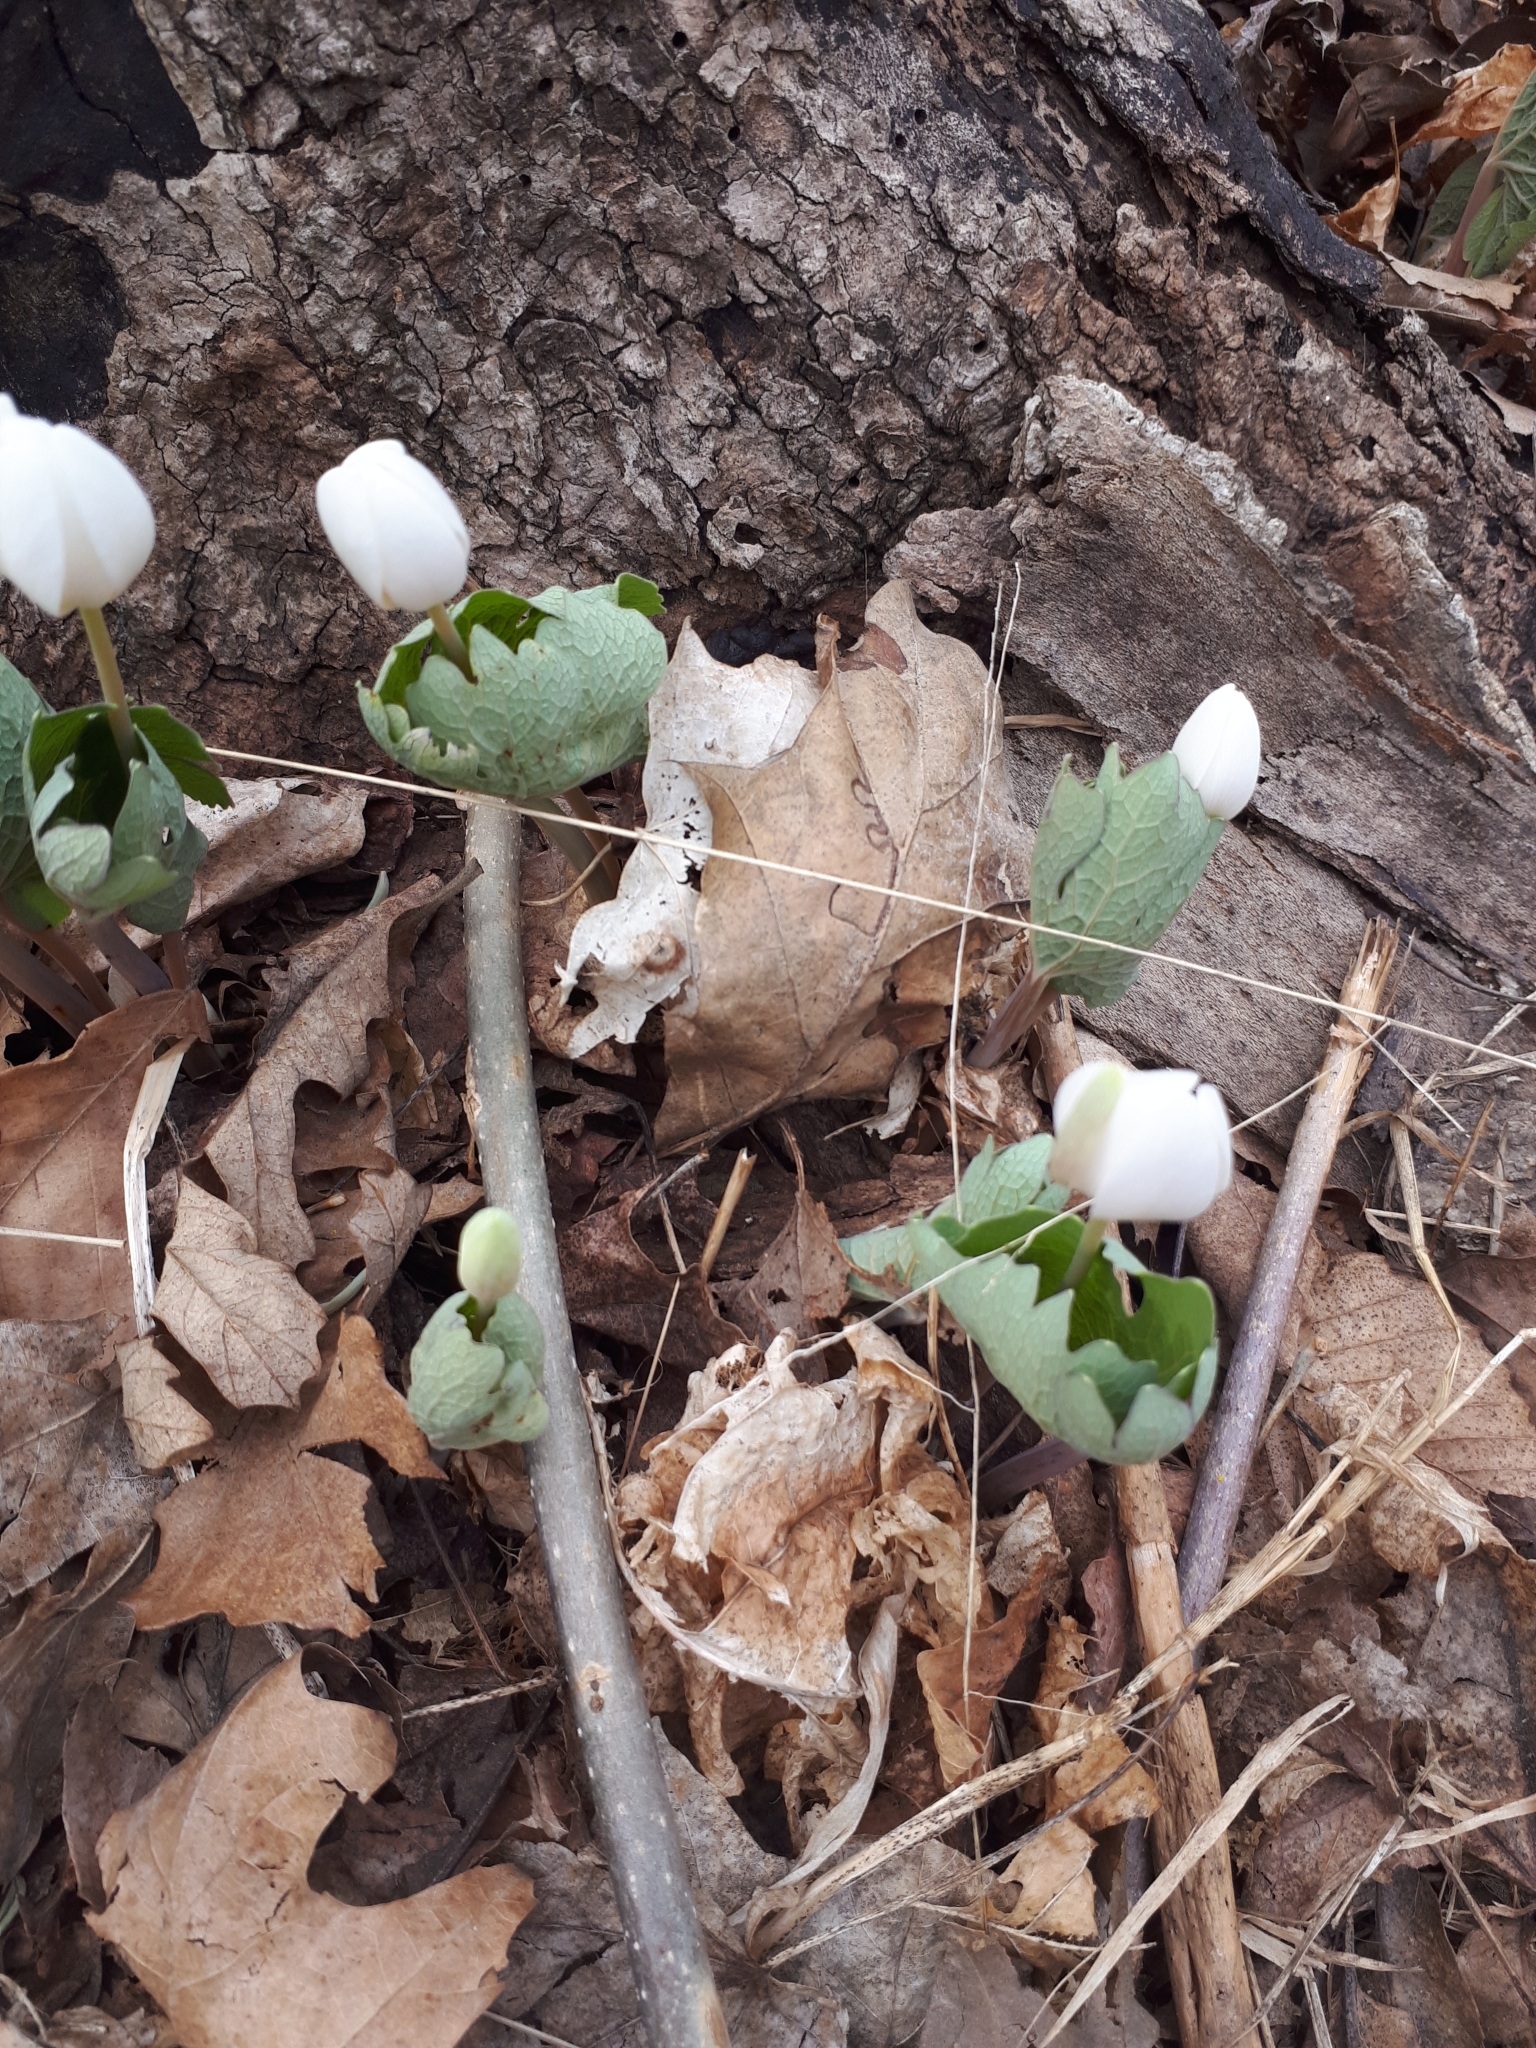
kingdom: Plantae
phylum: Tracheophyta
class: Magnoliopsida
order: Ranunculales
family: Papaveraceae
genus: Sanguinaria
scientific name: Sanguinaria canadensis
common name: Bloodroot
